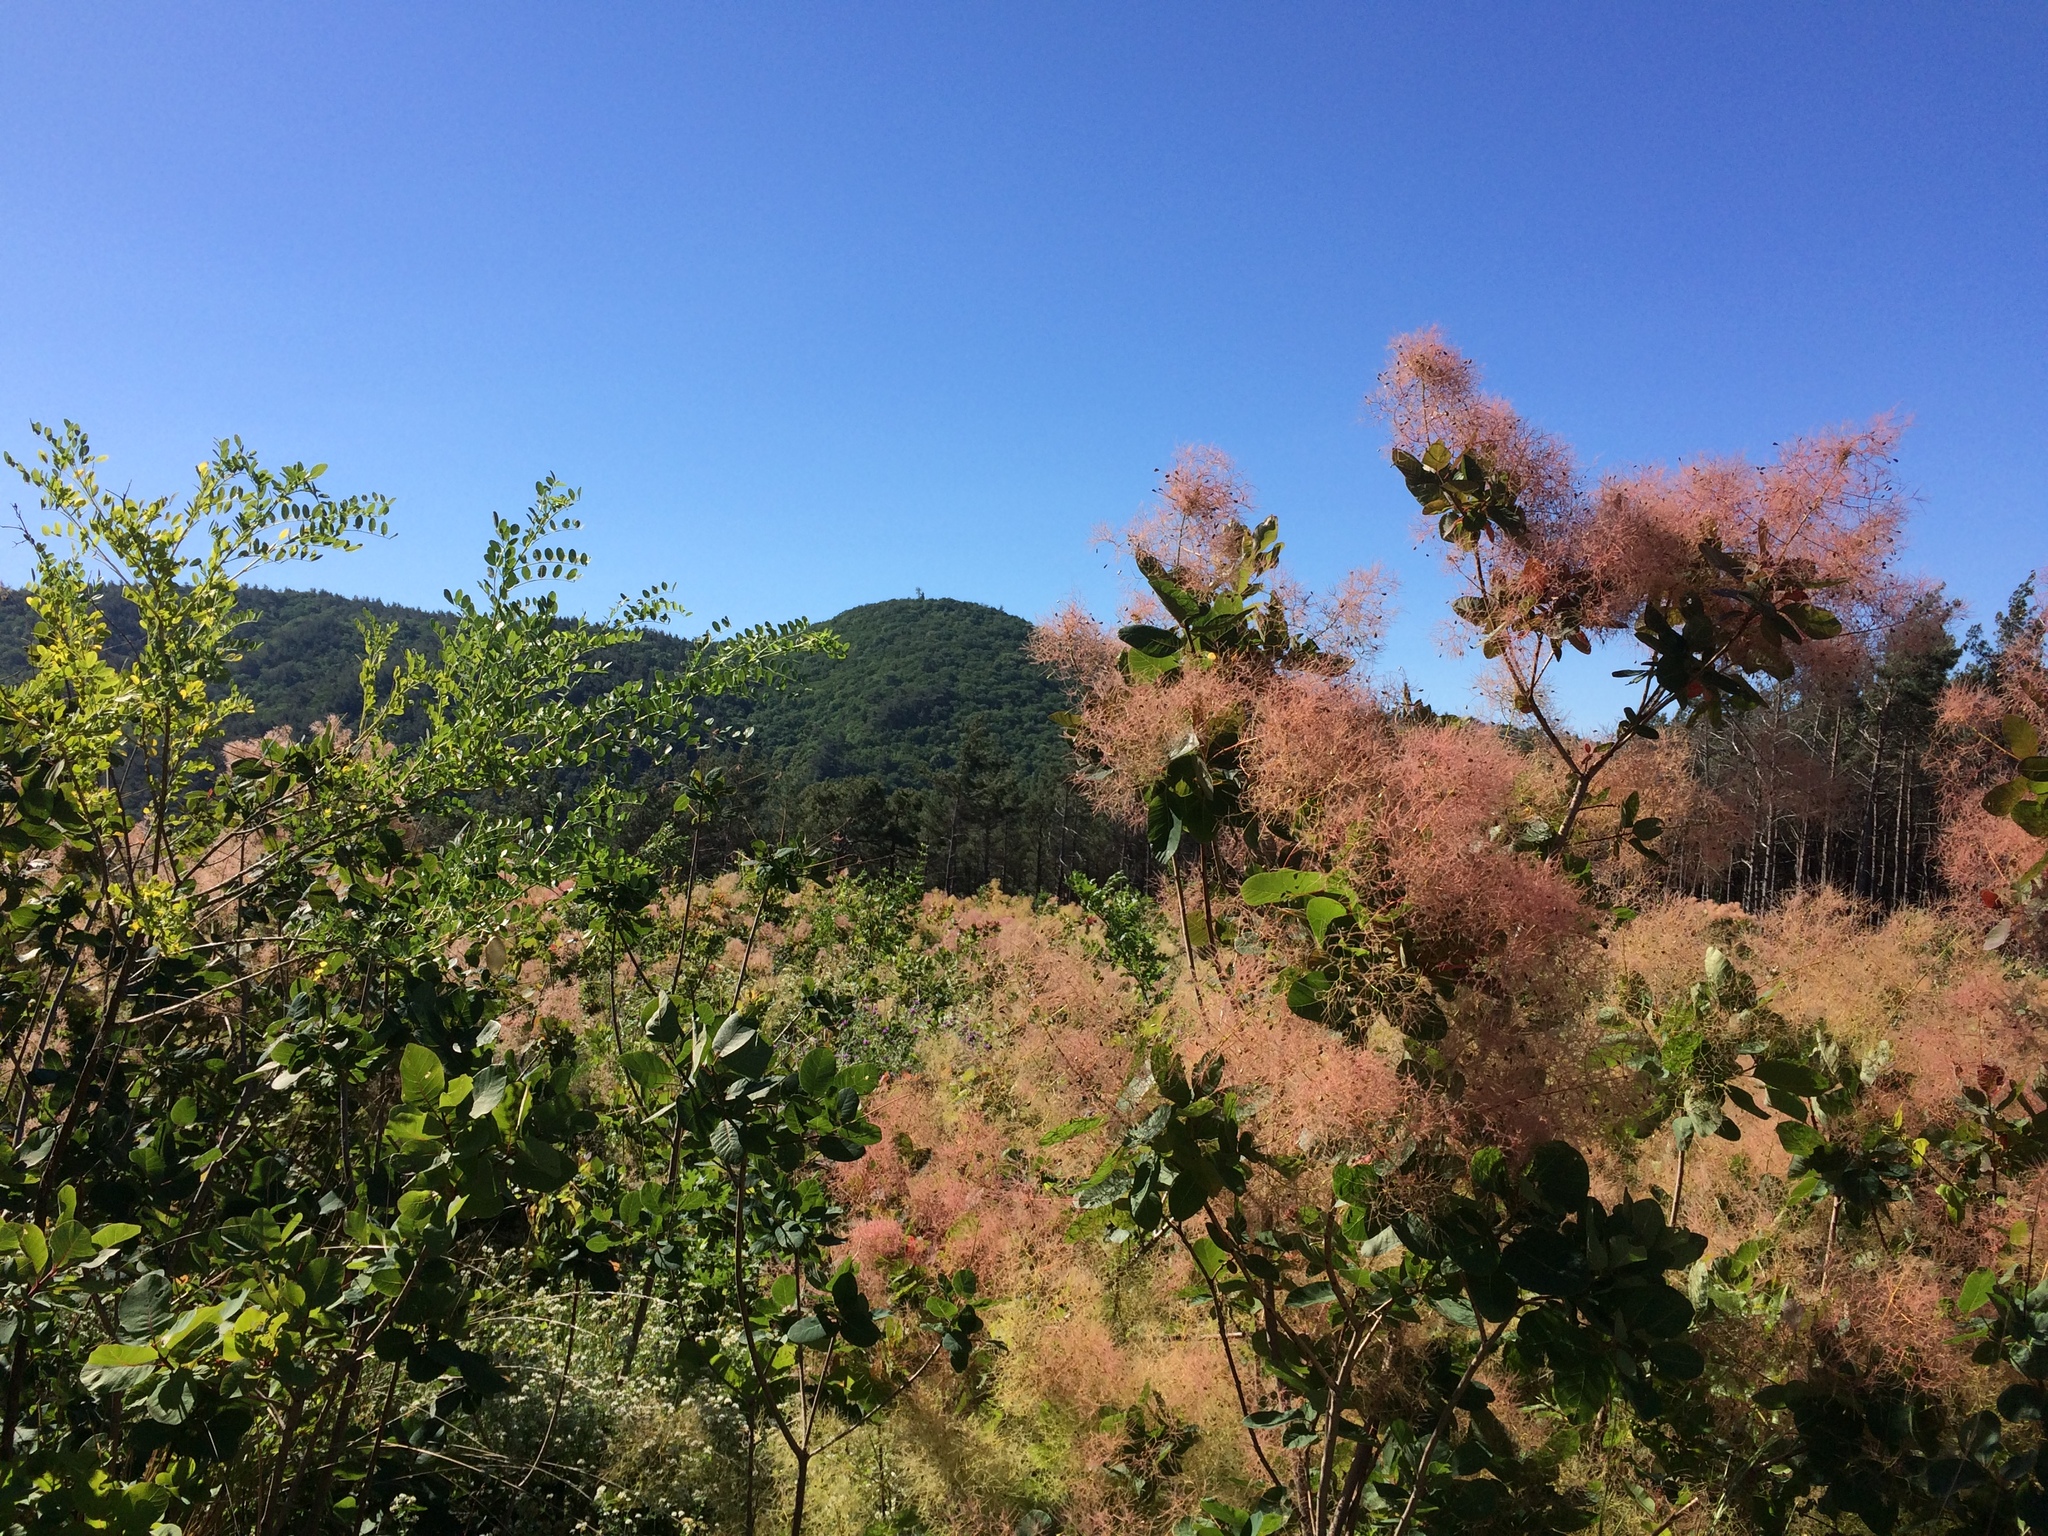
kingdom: Plantae
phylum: Tracheophyta
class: Magnoliopsida
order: Sapindales
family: Anacardiaceae
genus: Cotinus
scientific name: Cotinus coggygria
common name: Smoke-tree
